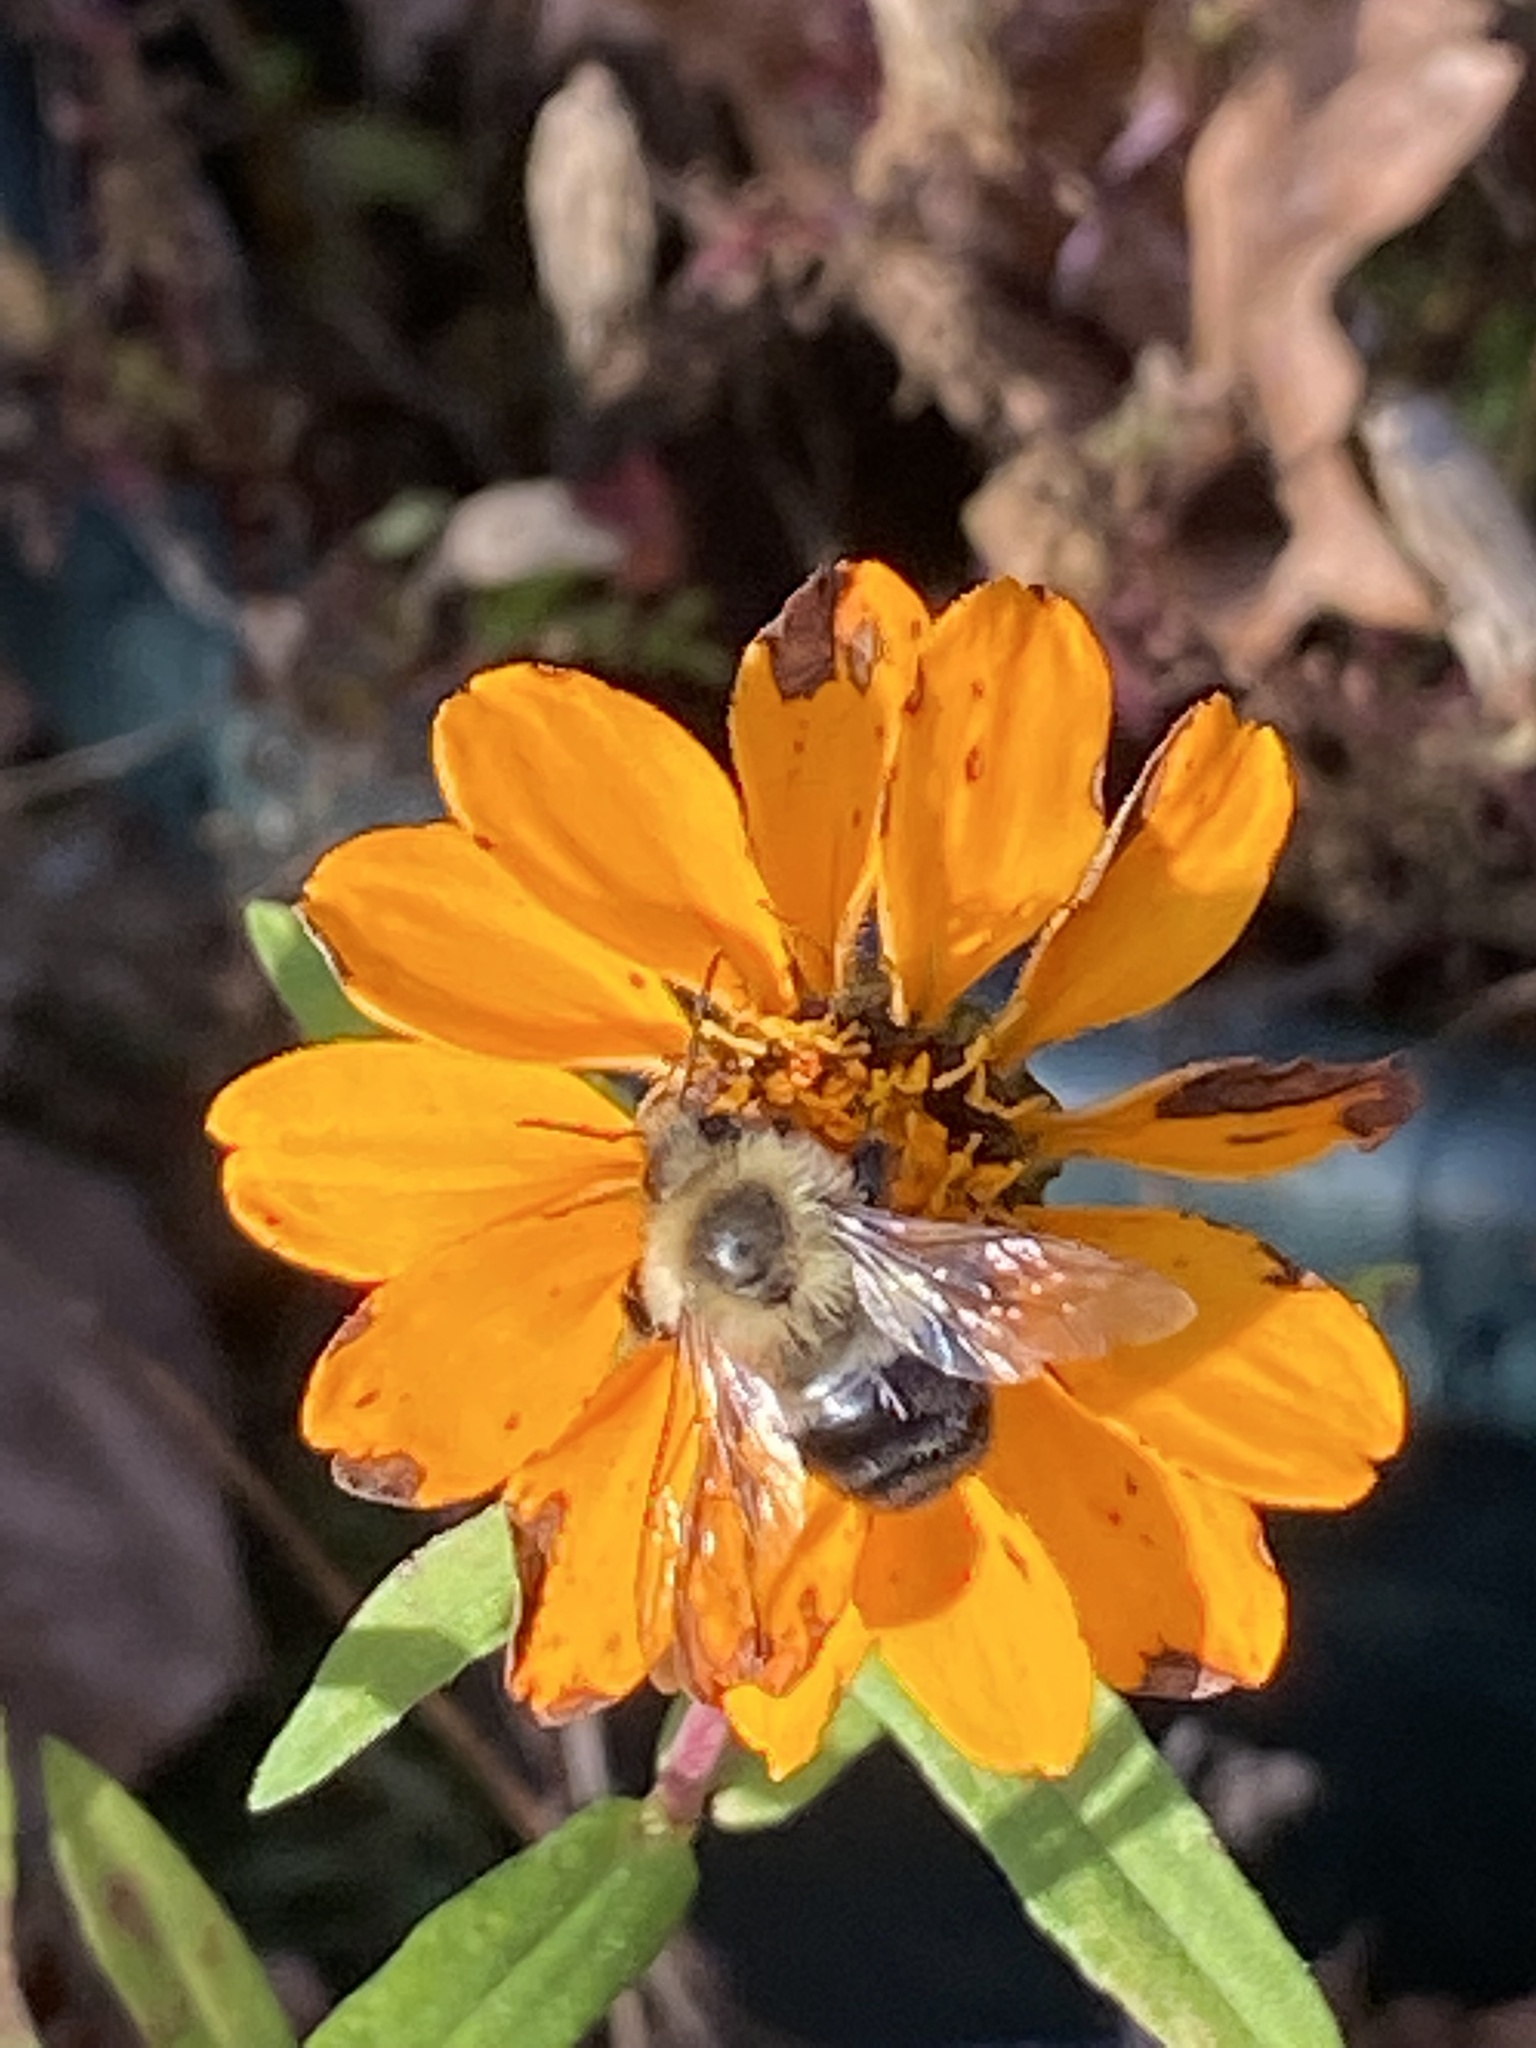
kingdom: Animalia
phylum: Arthropoda
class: Insecta
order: Hymenoptera
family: Apidae
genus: Bombus
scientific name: Bombus impatiens
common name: Common eastern bumble bee
